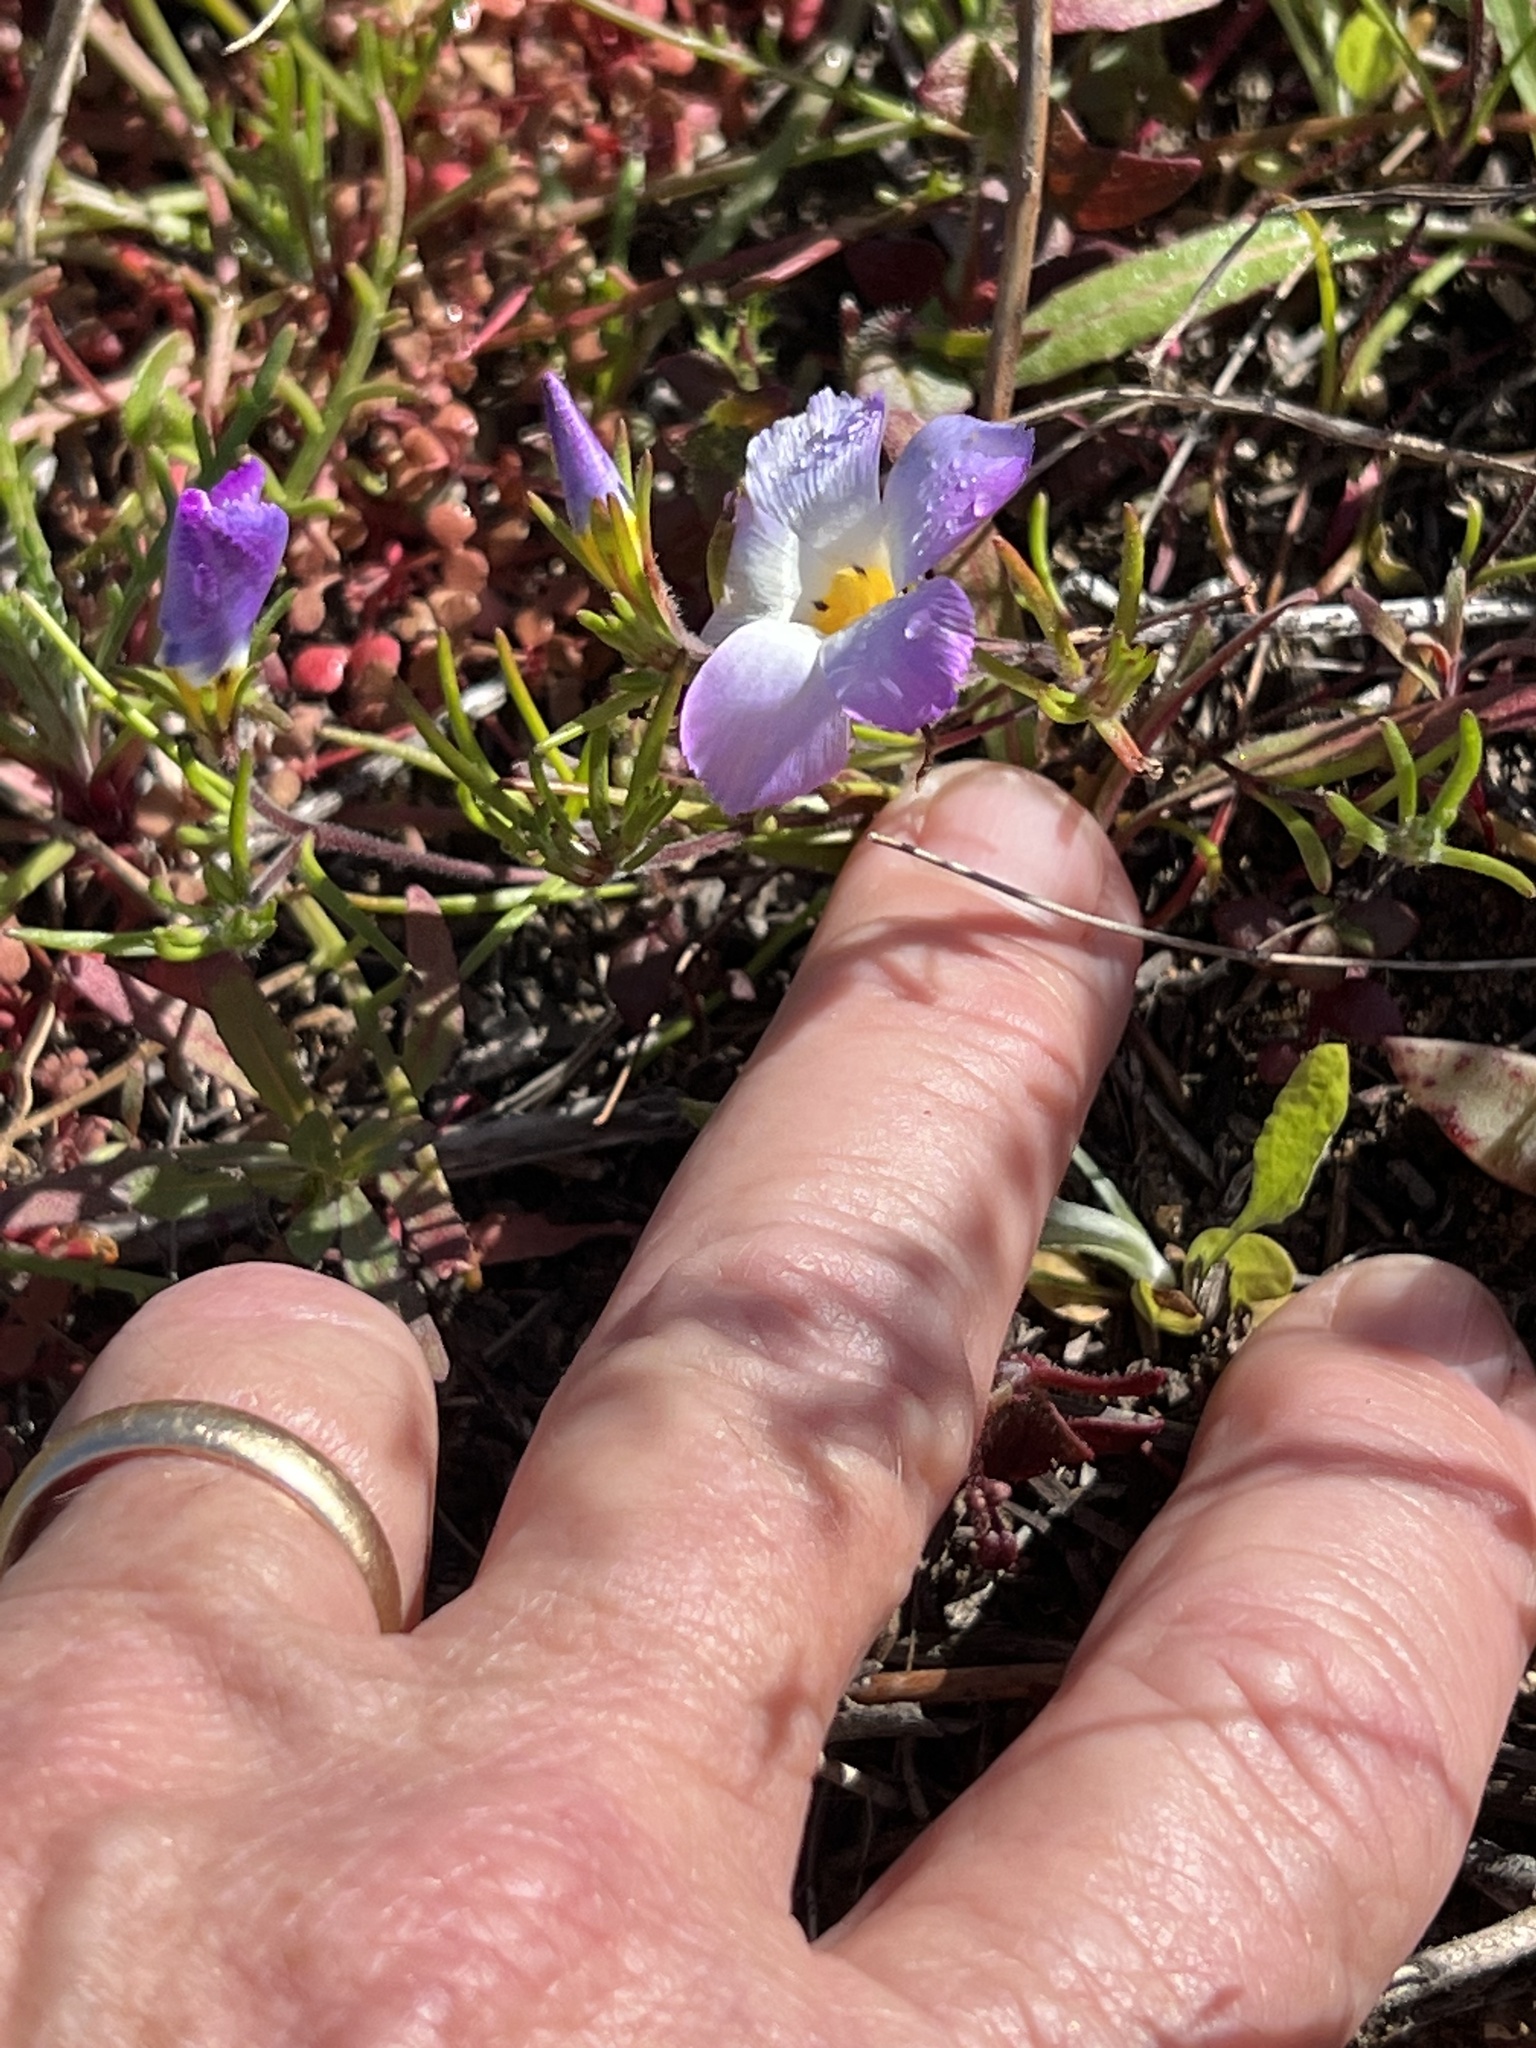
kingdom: Plantae
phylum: Tracheophyta
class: Magnoliopsida
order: Ericales
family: Polemoniaceae
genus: Linanthus
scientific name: Linanthus dianthiflorus
